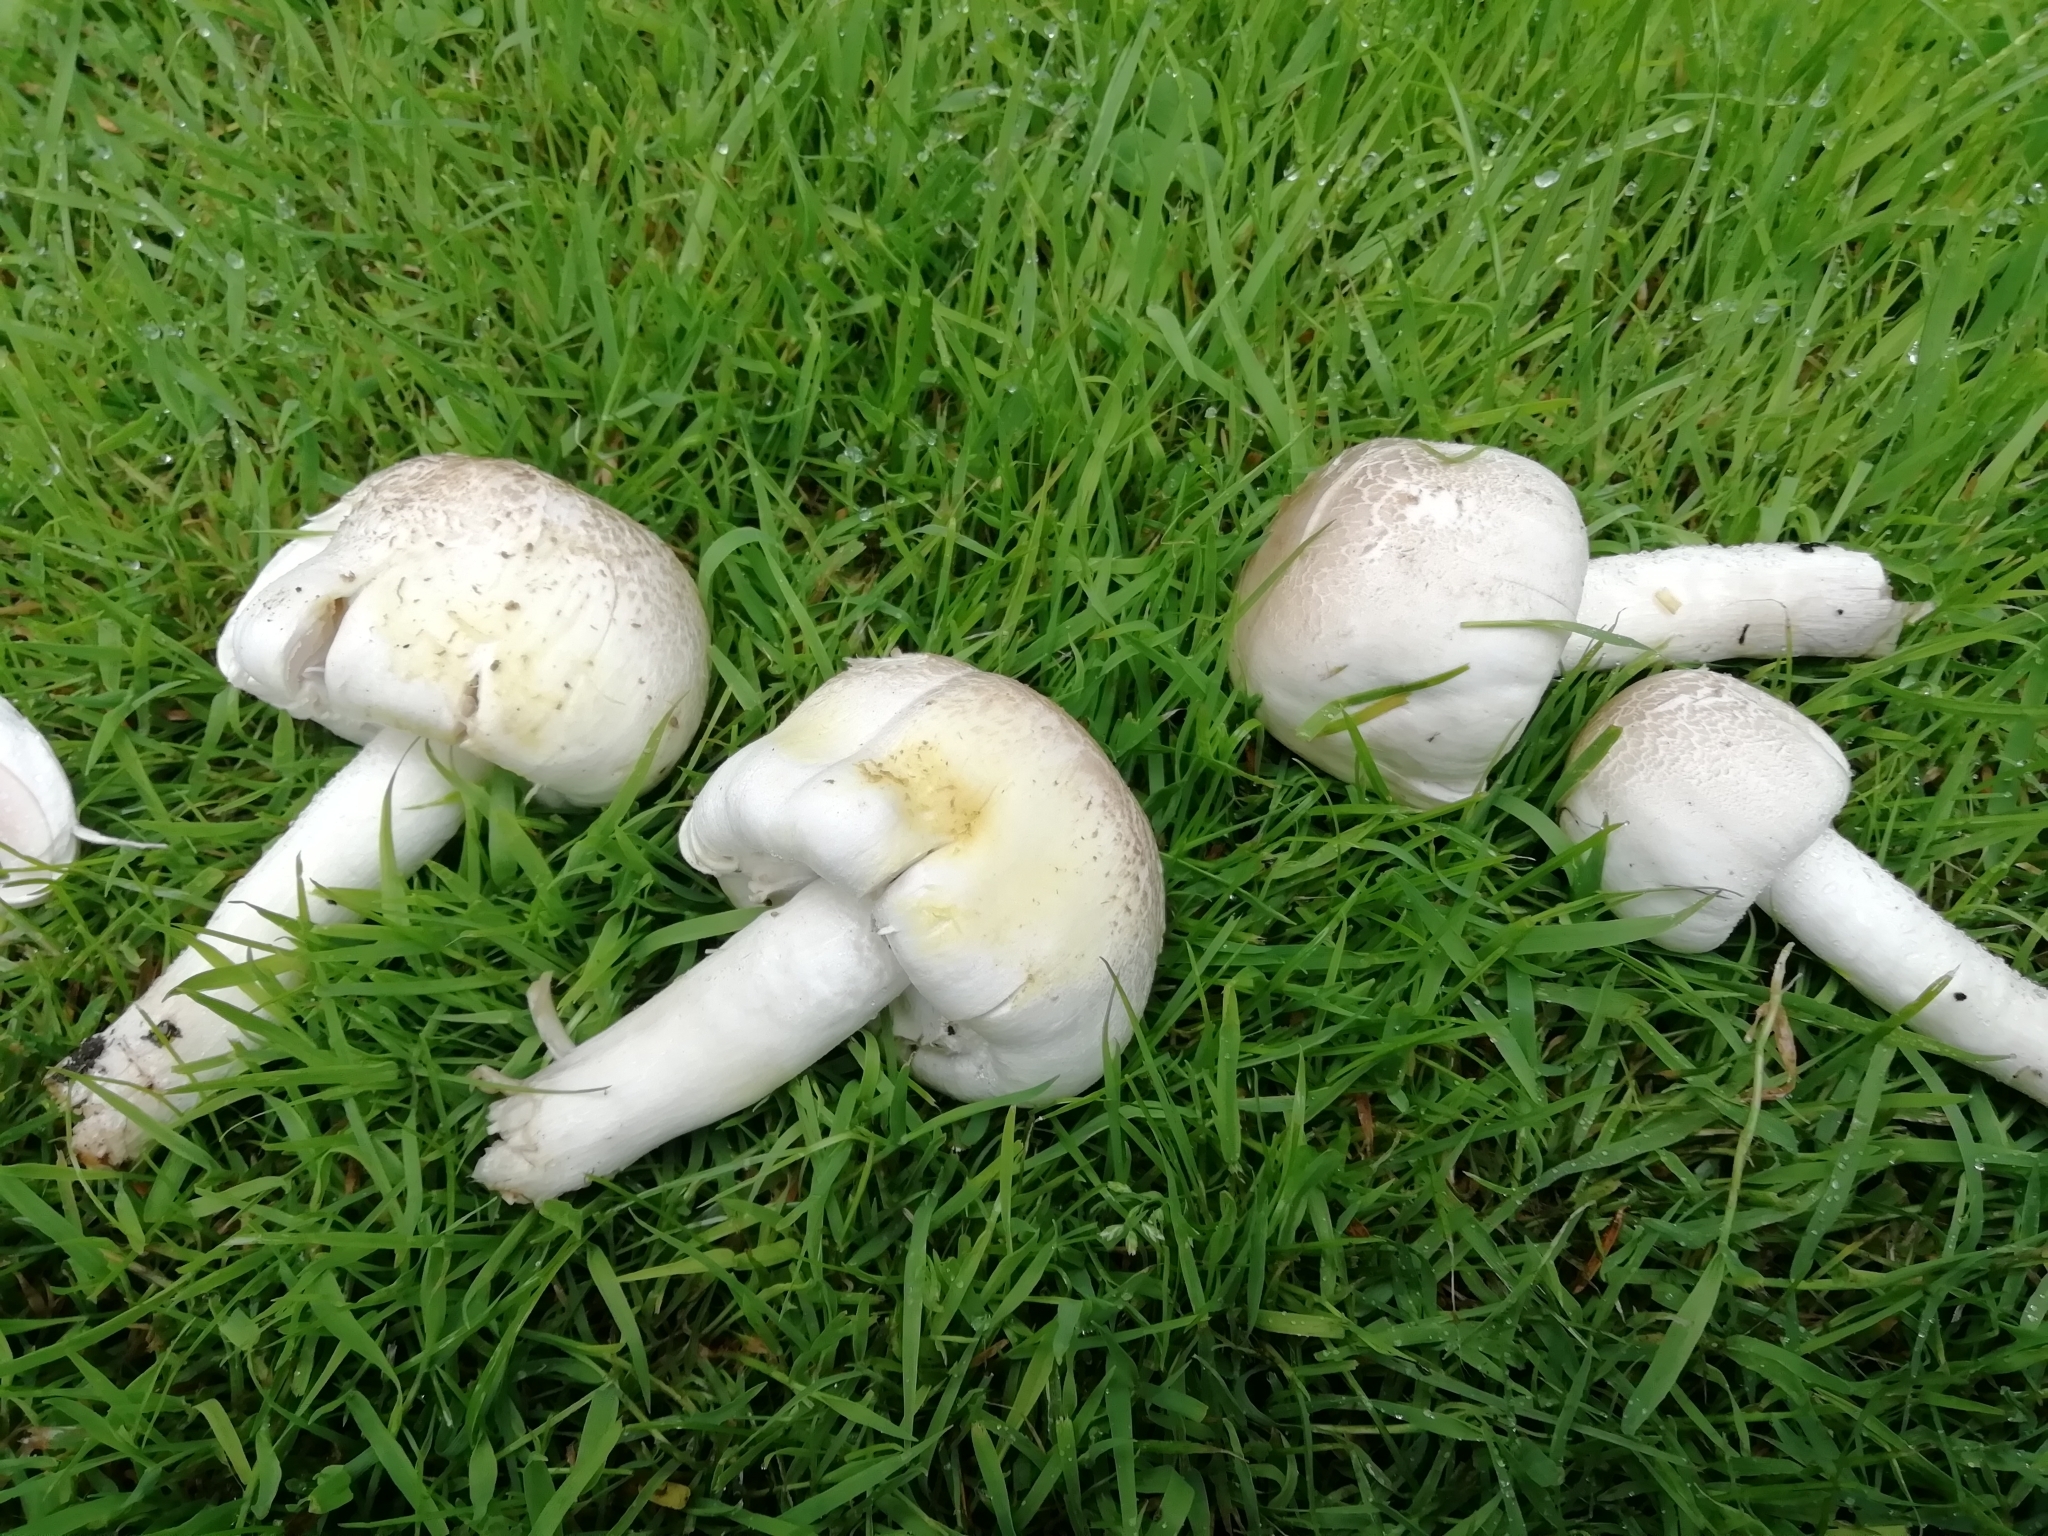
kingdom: Fungi
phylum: Basidiomycota
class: Agaricomycetes
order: Agaricales
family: Agaricaceae
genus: Agaricus
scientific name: Agaricus xanthodermus
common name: Yellow stainer
